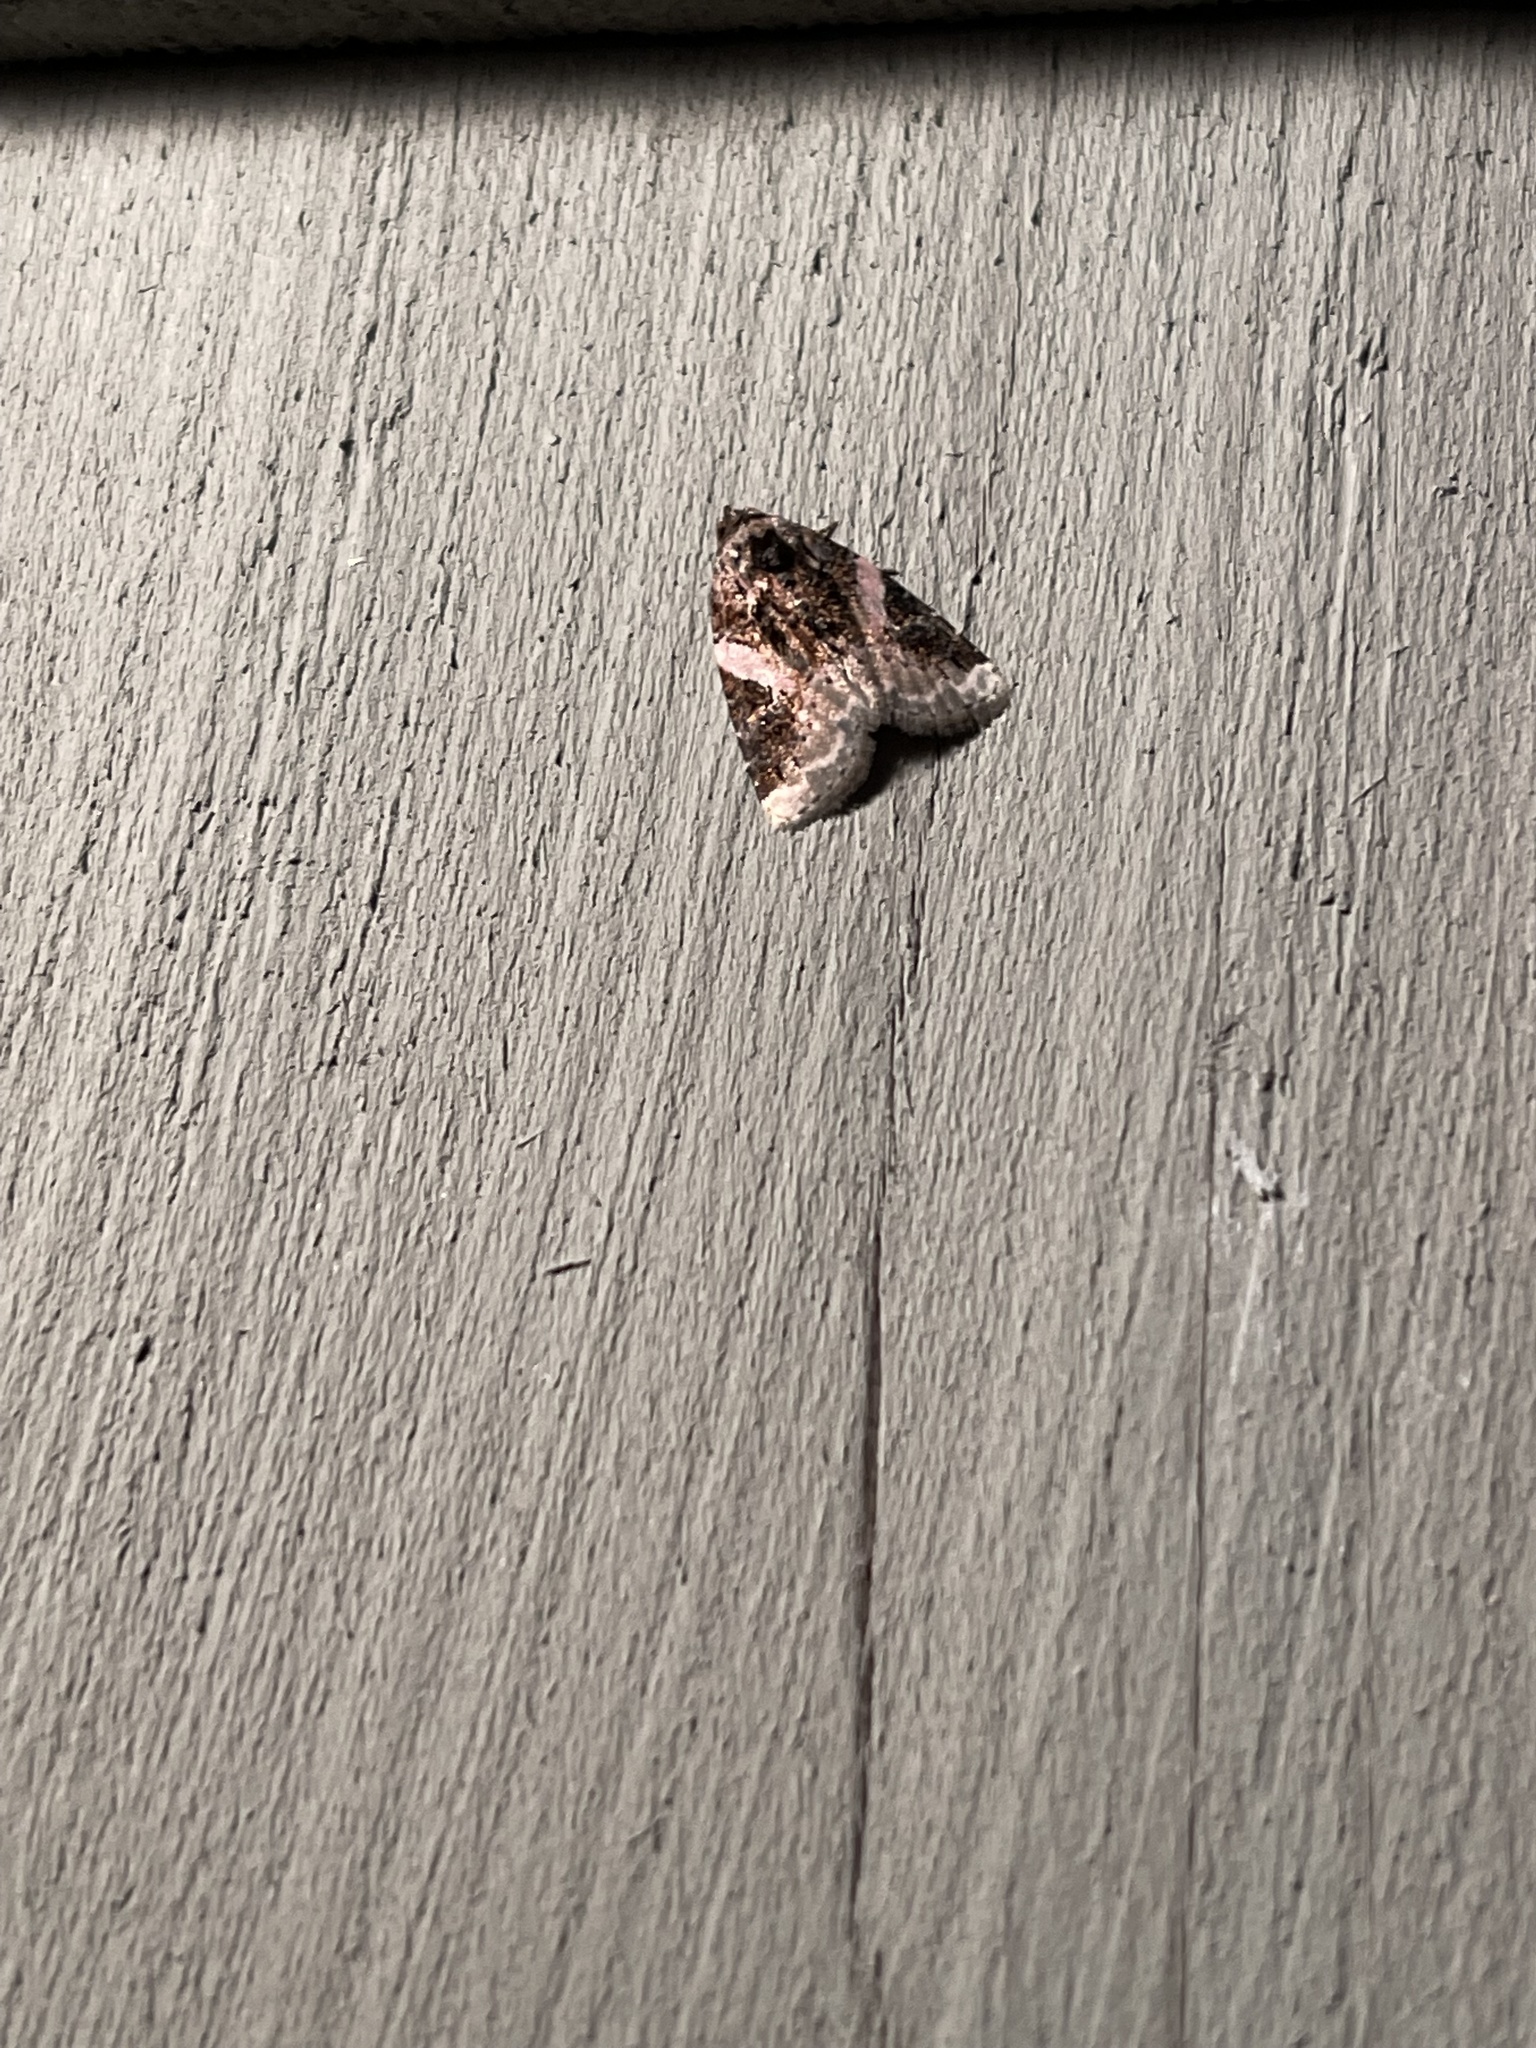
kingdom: Animalia
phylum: Arthropoda
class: Insecta
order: Lepidoptera
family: Noctuidae
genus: Pseudeustrotia
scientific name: Pseudeustrotia carneola
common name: Pink-barred lithacodia moth
